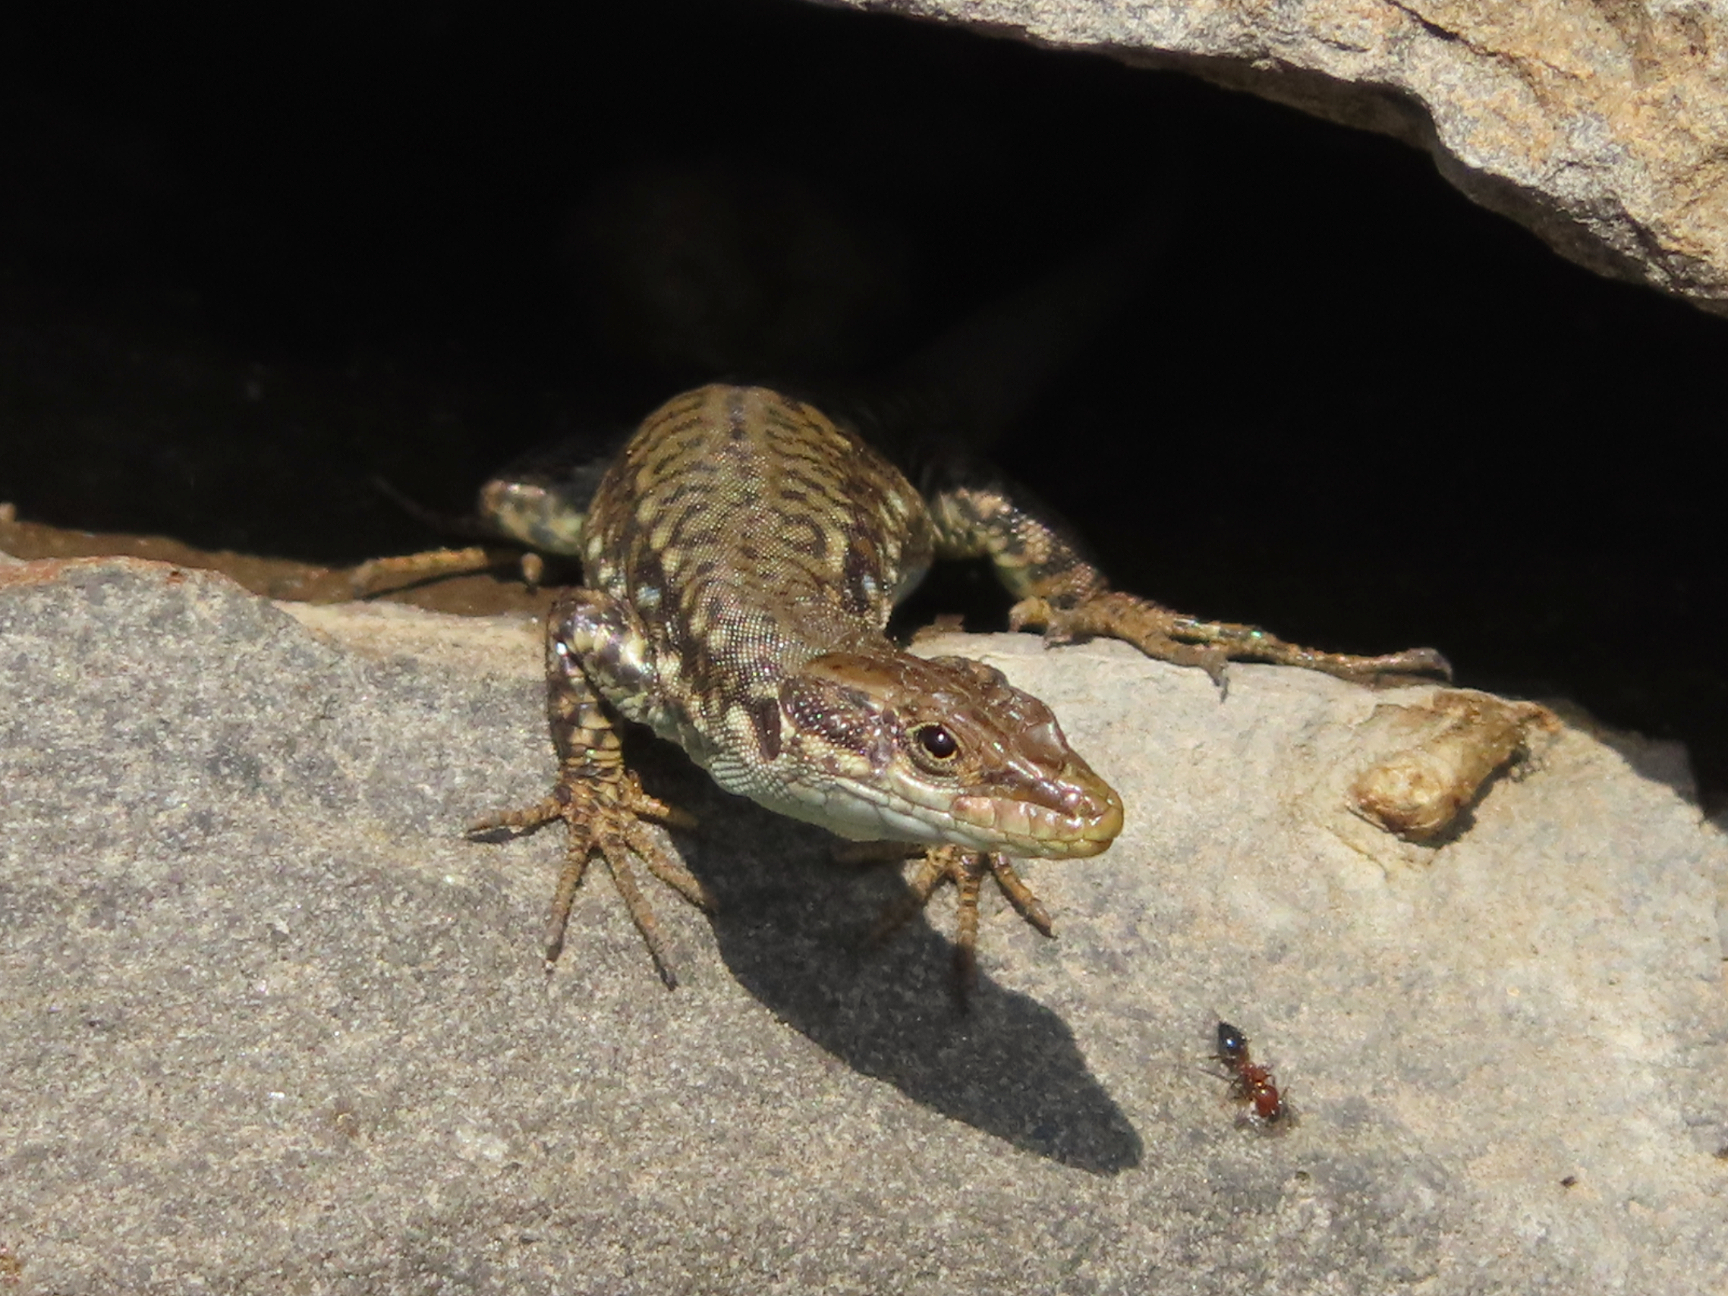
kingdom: Animalia
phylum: Chordata
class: Squamata
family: Lacertidae
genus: Darevskia
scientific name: Darevskia
